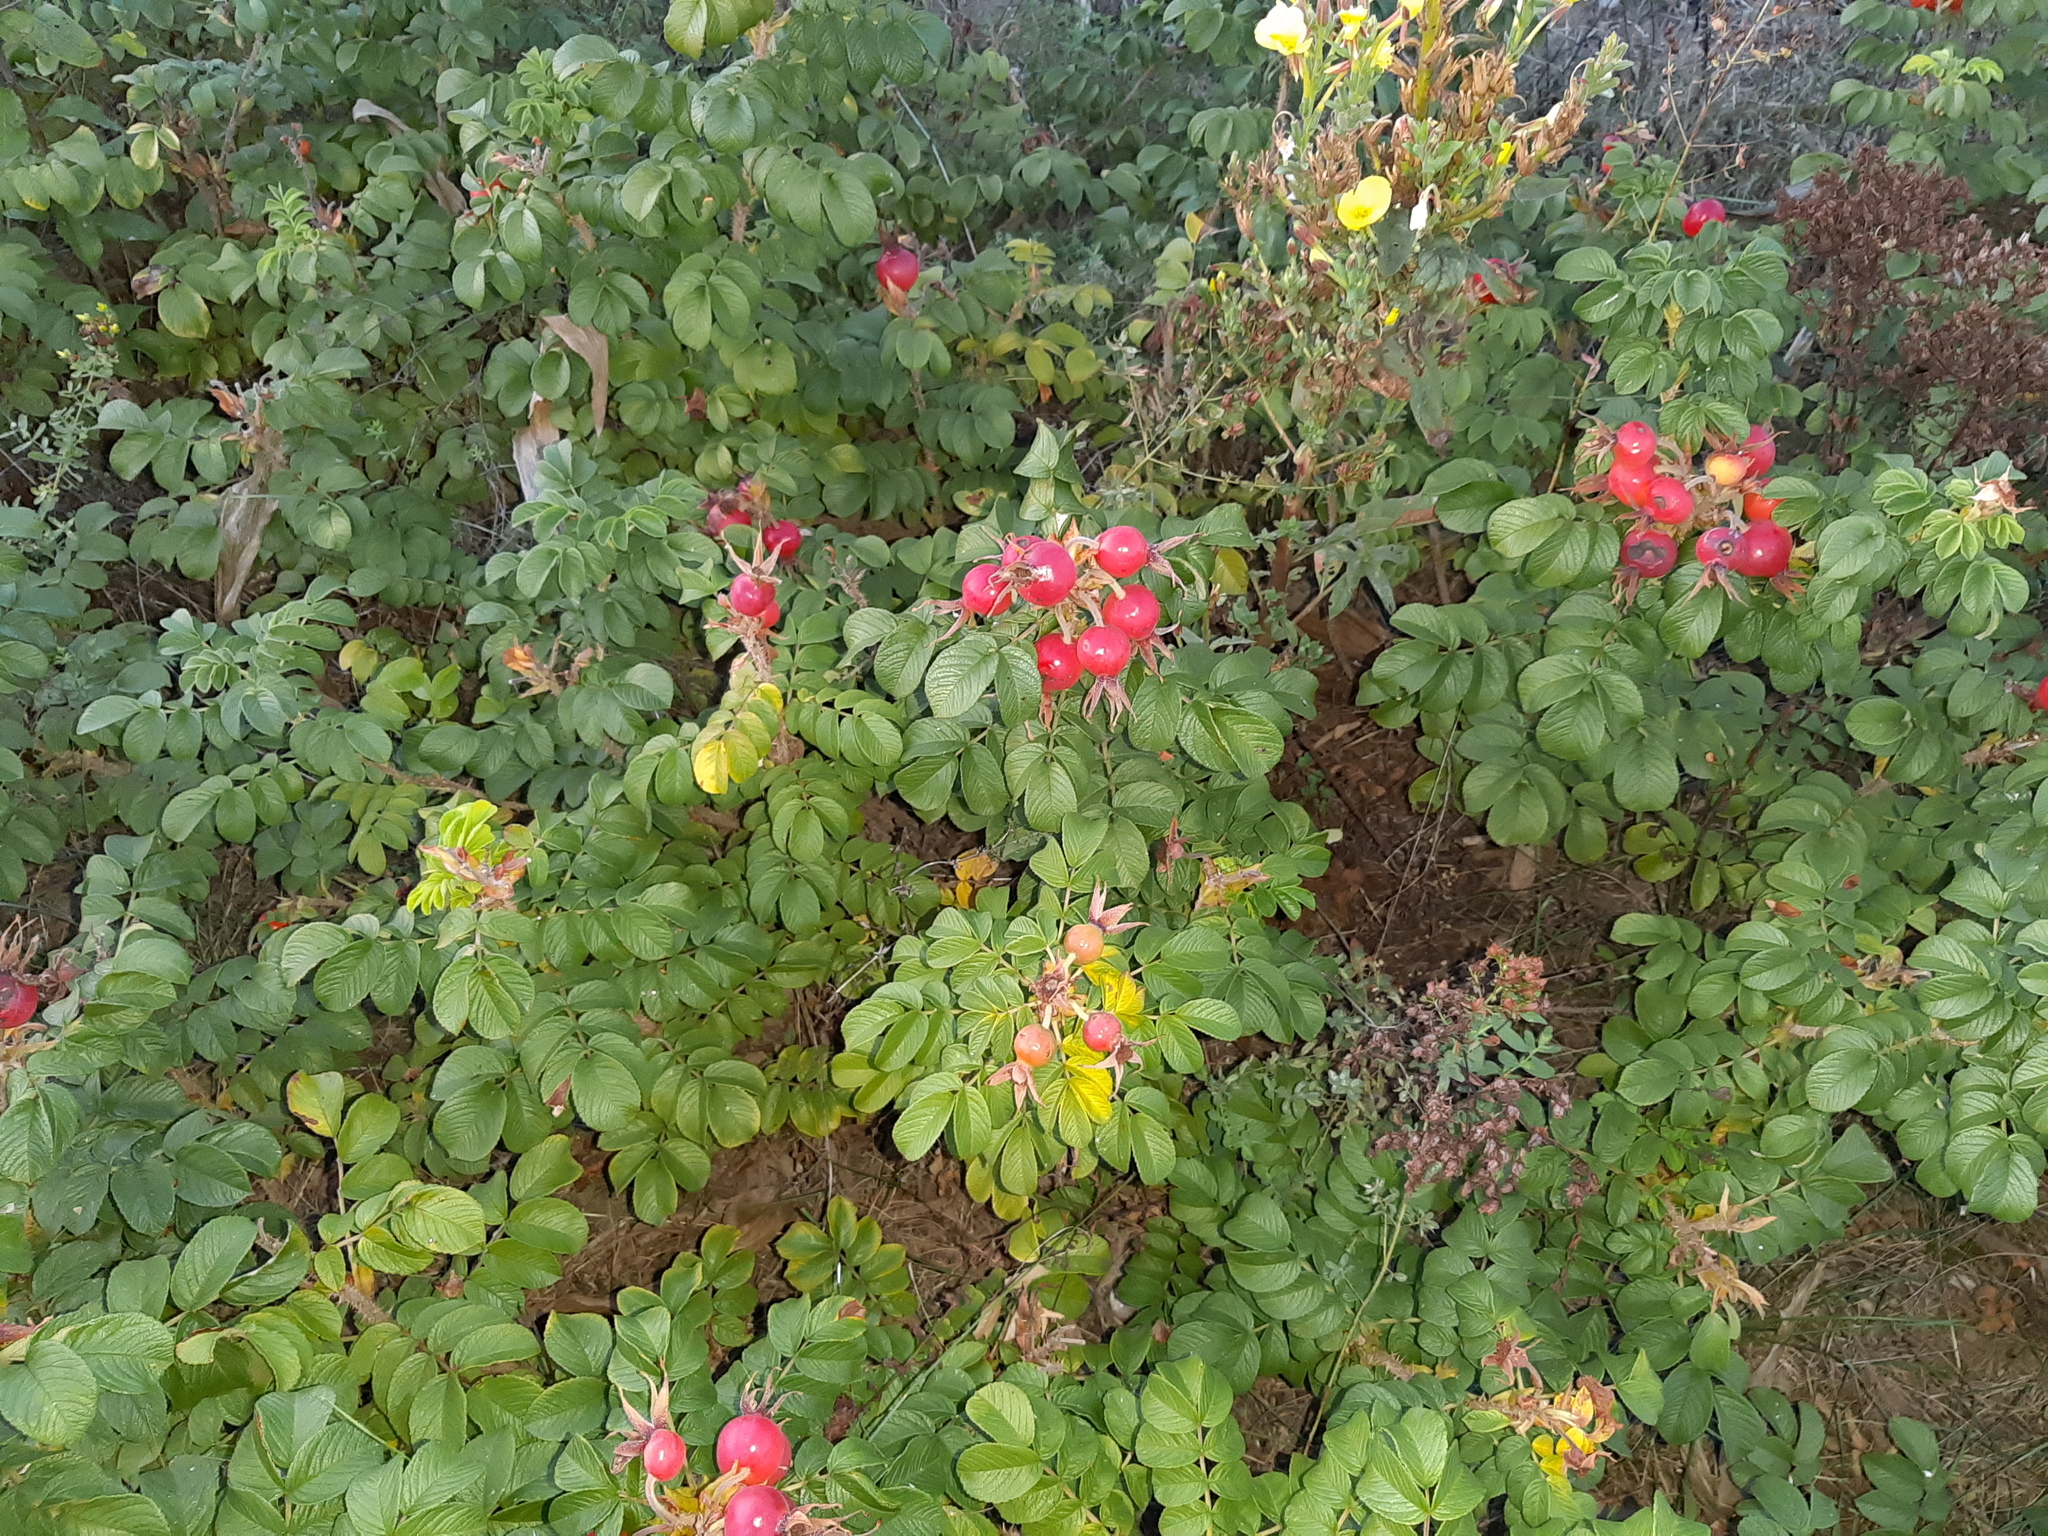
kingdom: Plantae
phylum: Tracheophyta
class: Magnoliopsida
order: Rosales
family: Rosaceae
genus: Rosa
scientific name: Rosa rugosa
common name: Japanese rose
